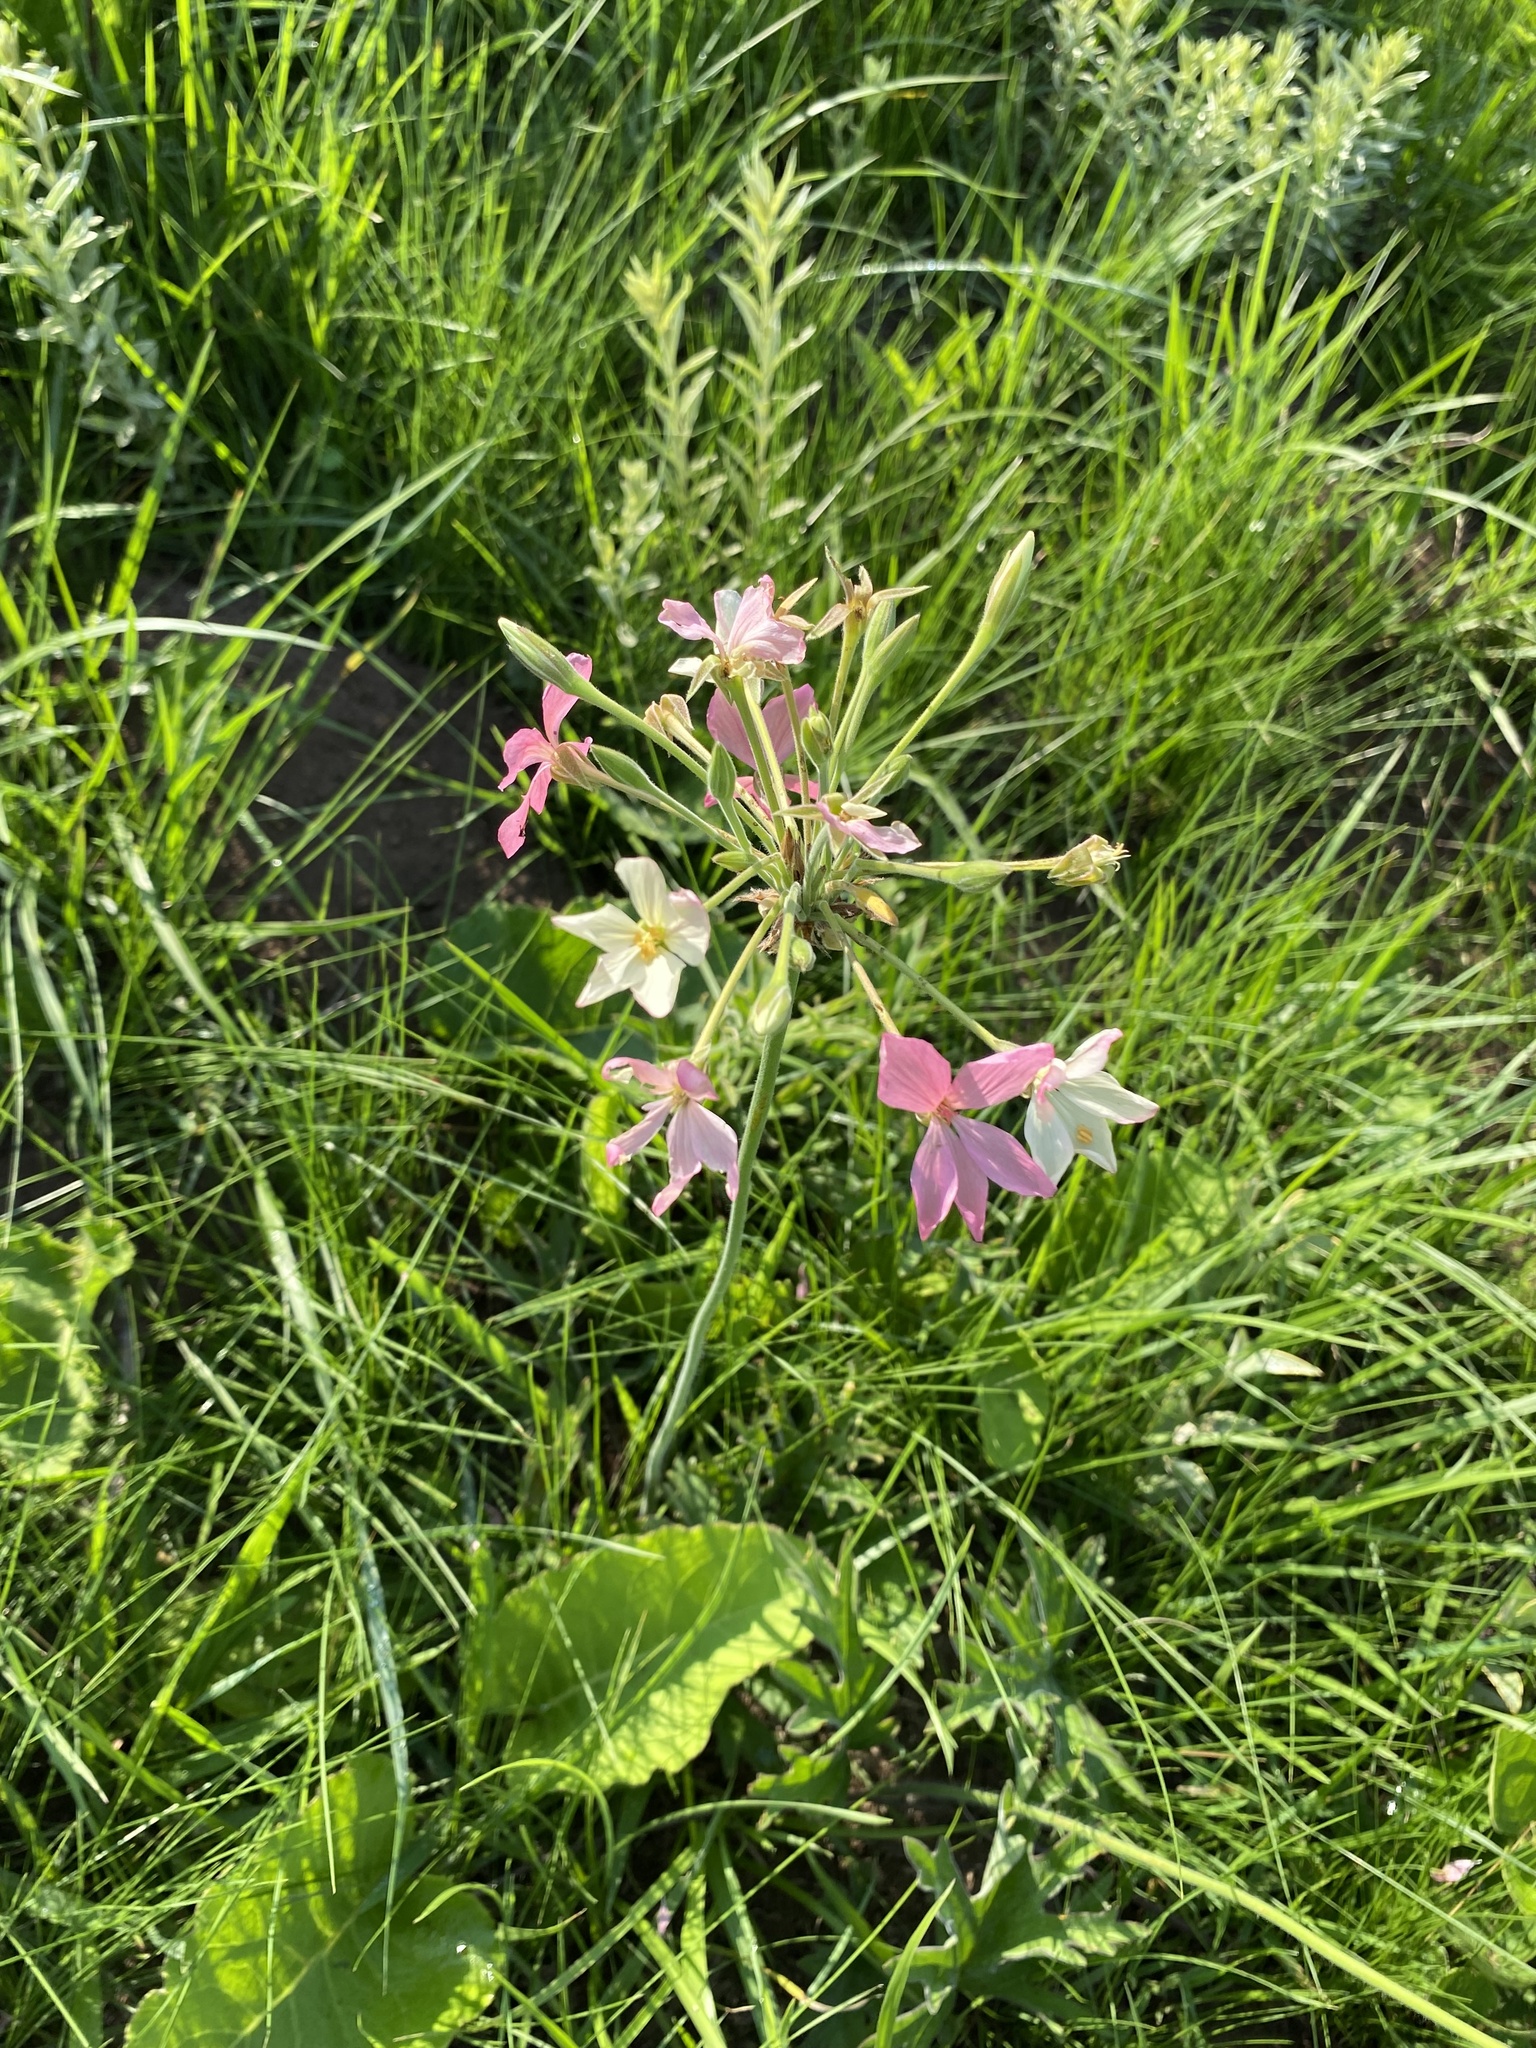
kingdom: Plantae
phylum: Tracheophyta
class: Magnoliopsida
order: Geraniales
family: Geraniaceae
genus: Pelargonium
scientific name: Pelargonium luridum
